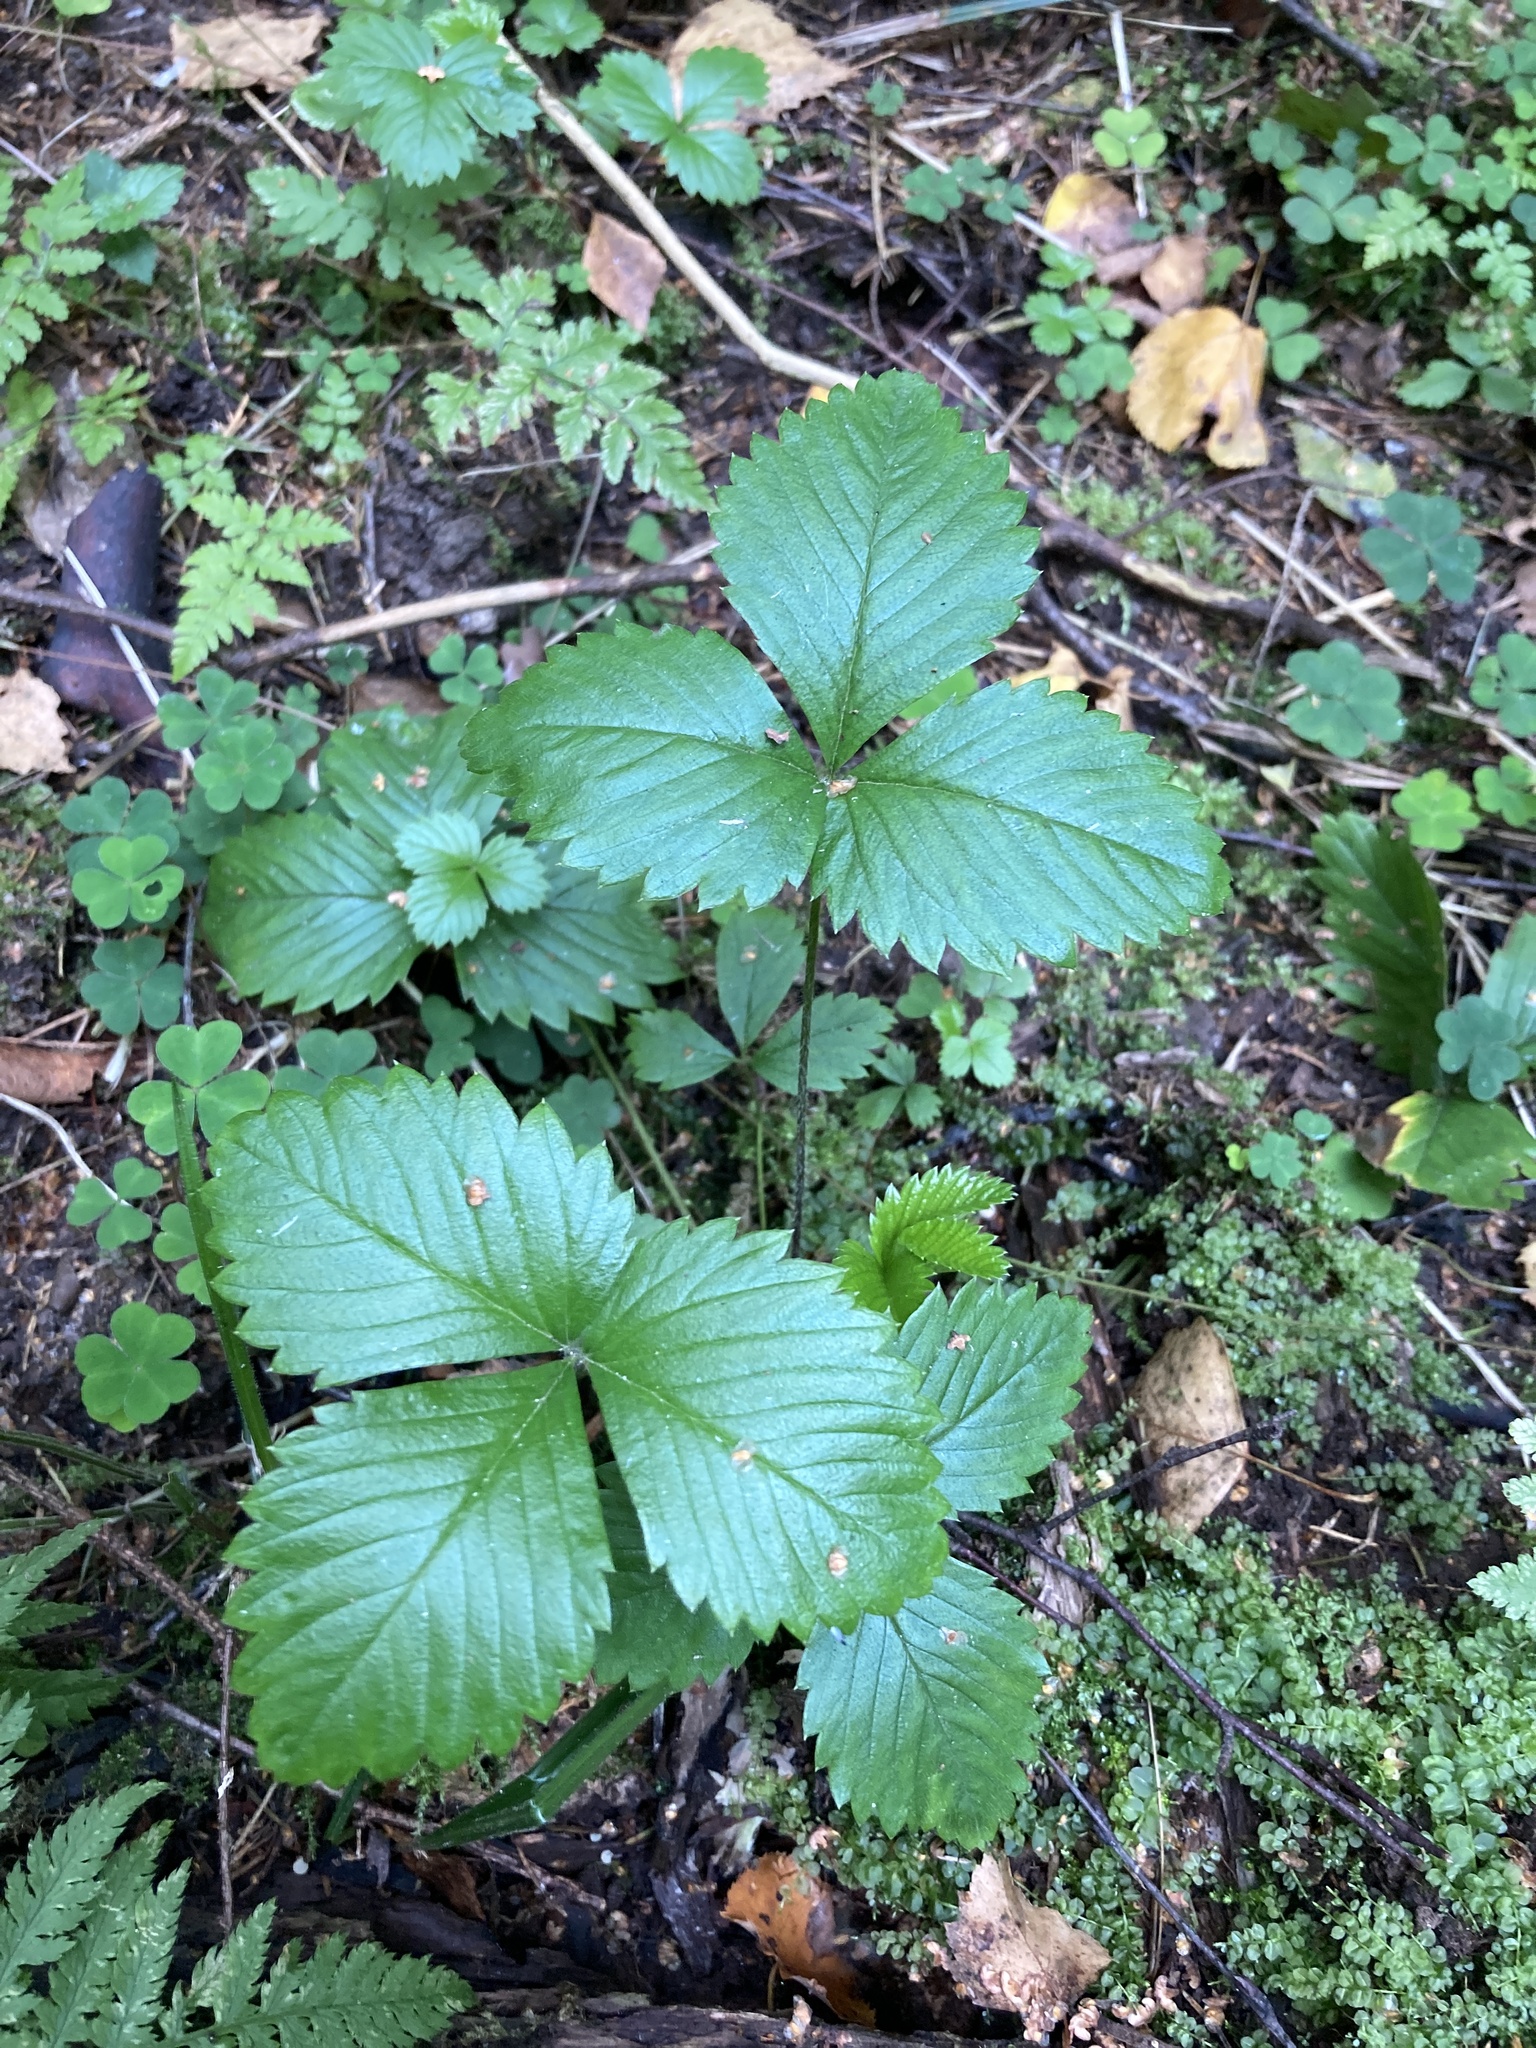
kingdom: Plantae
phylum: Tracheophyta
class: Magnoliopsida
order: Rosales
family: Rosaceae
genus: Fragaria
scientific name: Fragaria vesca
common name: Wild strawberry
